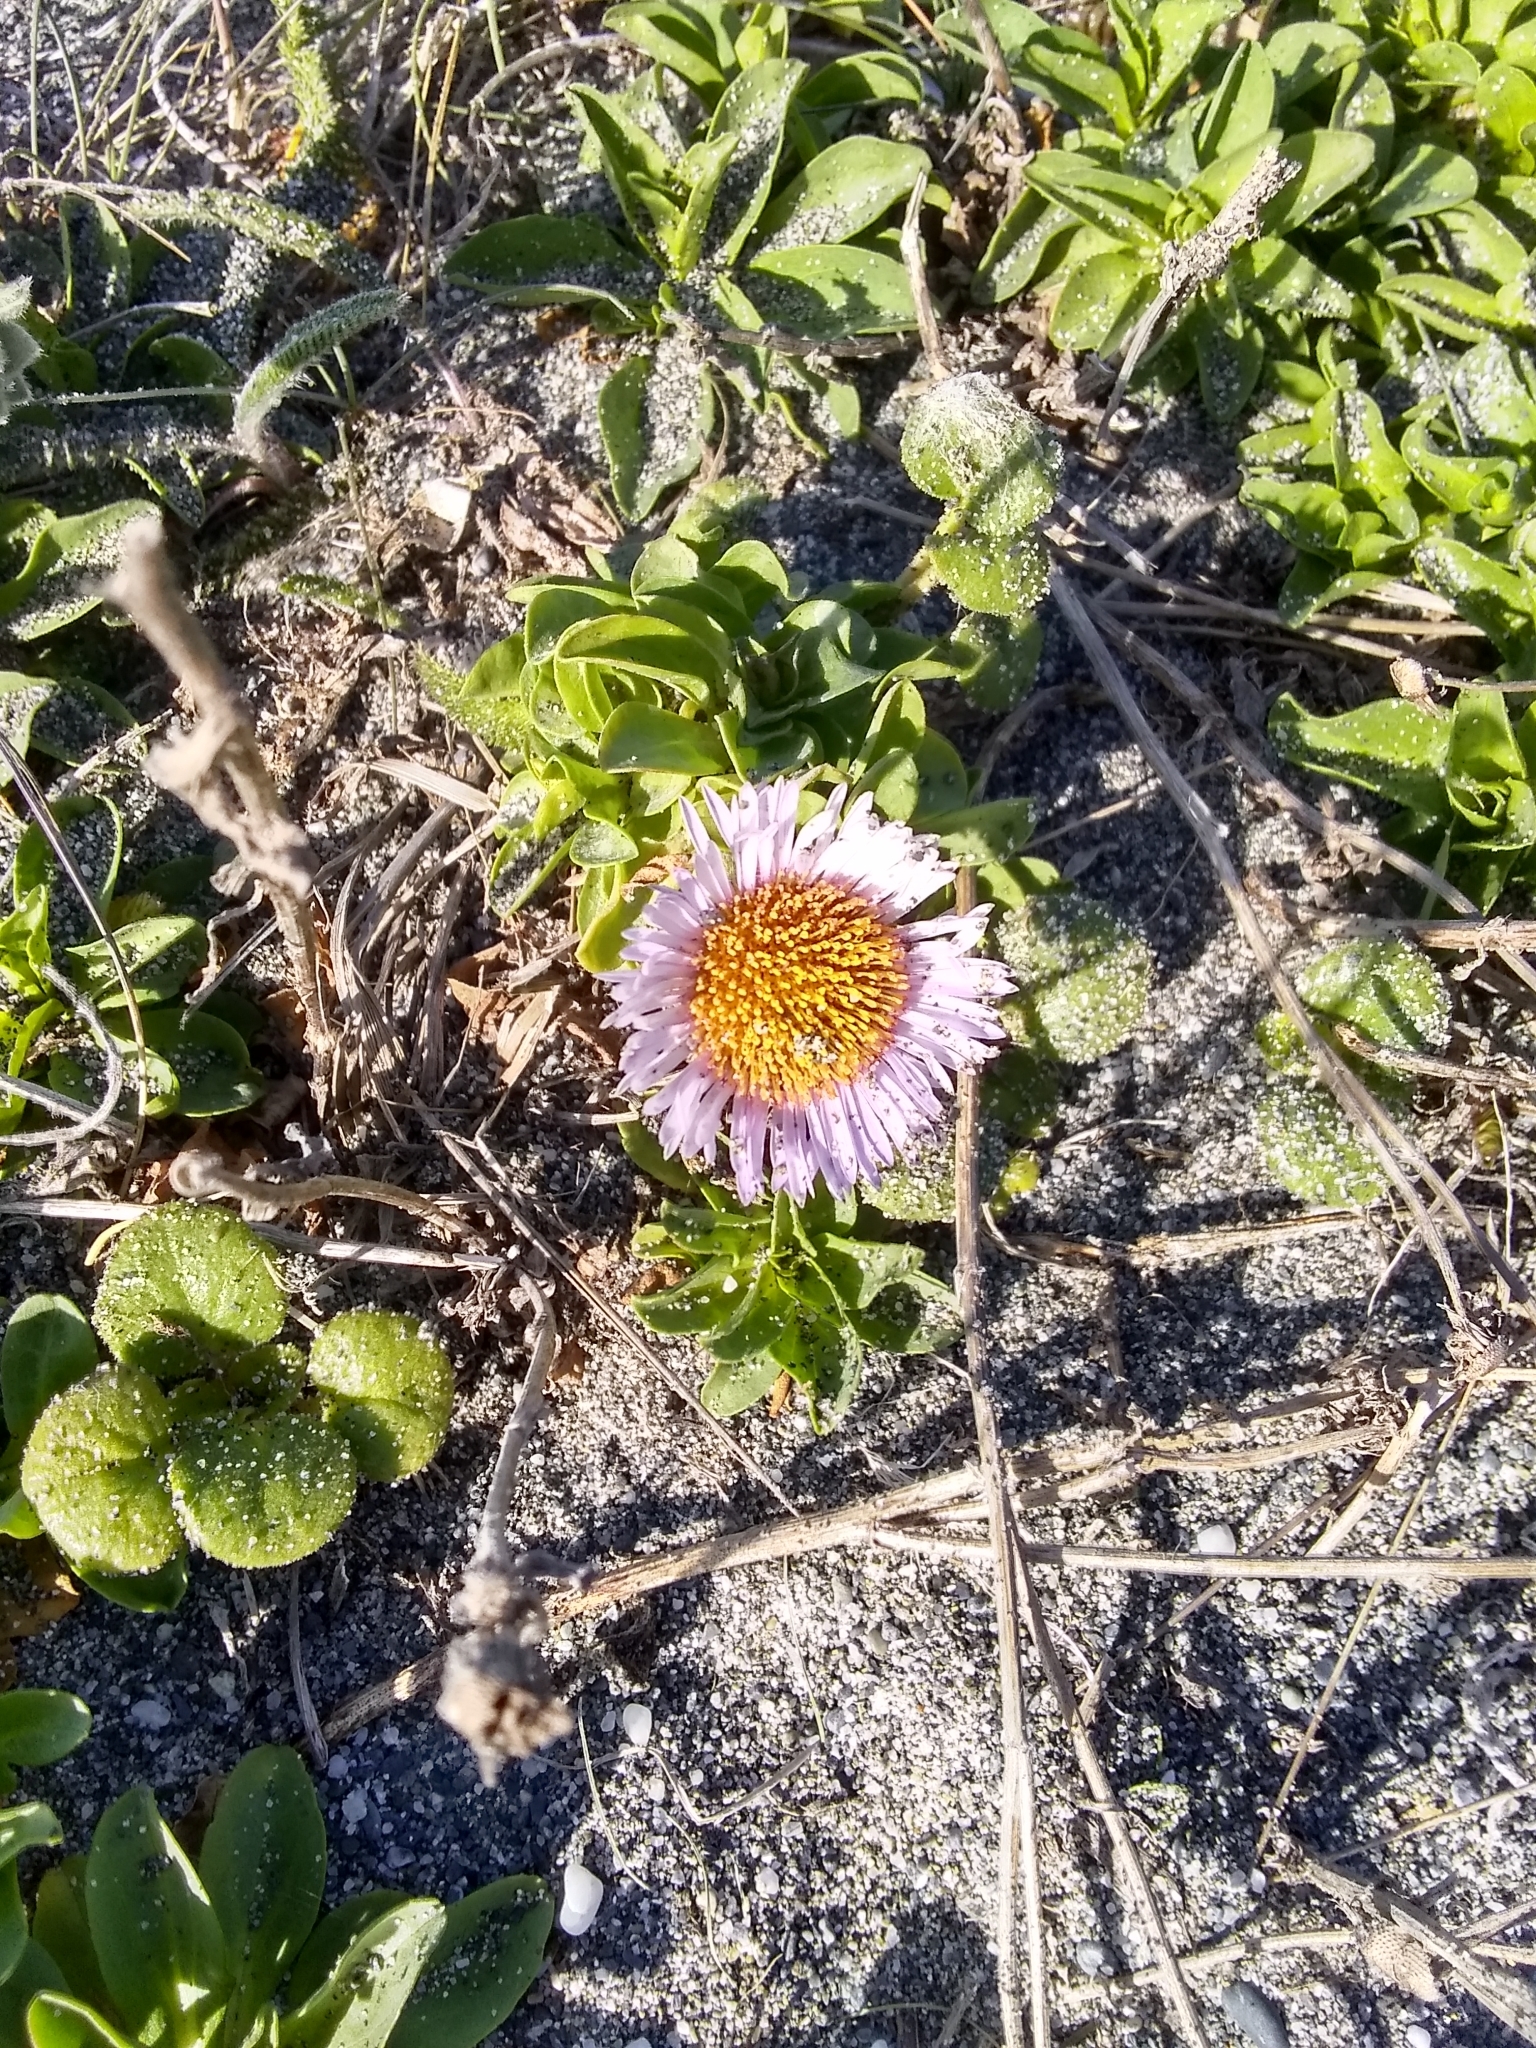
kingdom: Plantae
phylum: Tracheophyta
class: Magnoliopsida
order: Asterales
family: Asteraceae
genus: Erigeron
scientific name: Erigeron glaucus
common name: Seaside daisy
